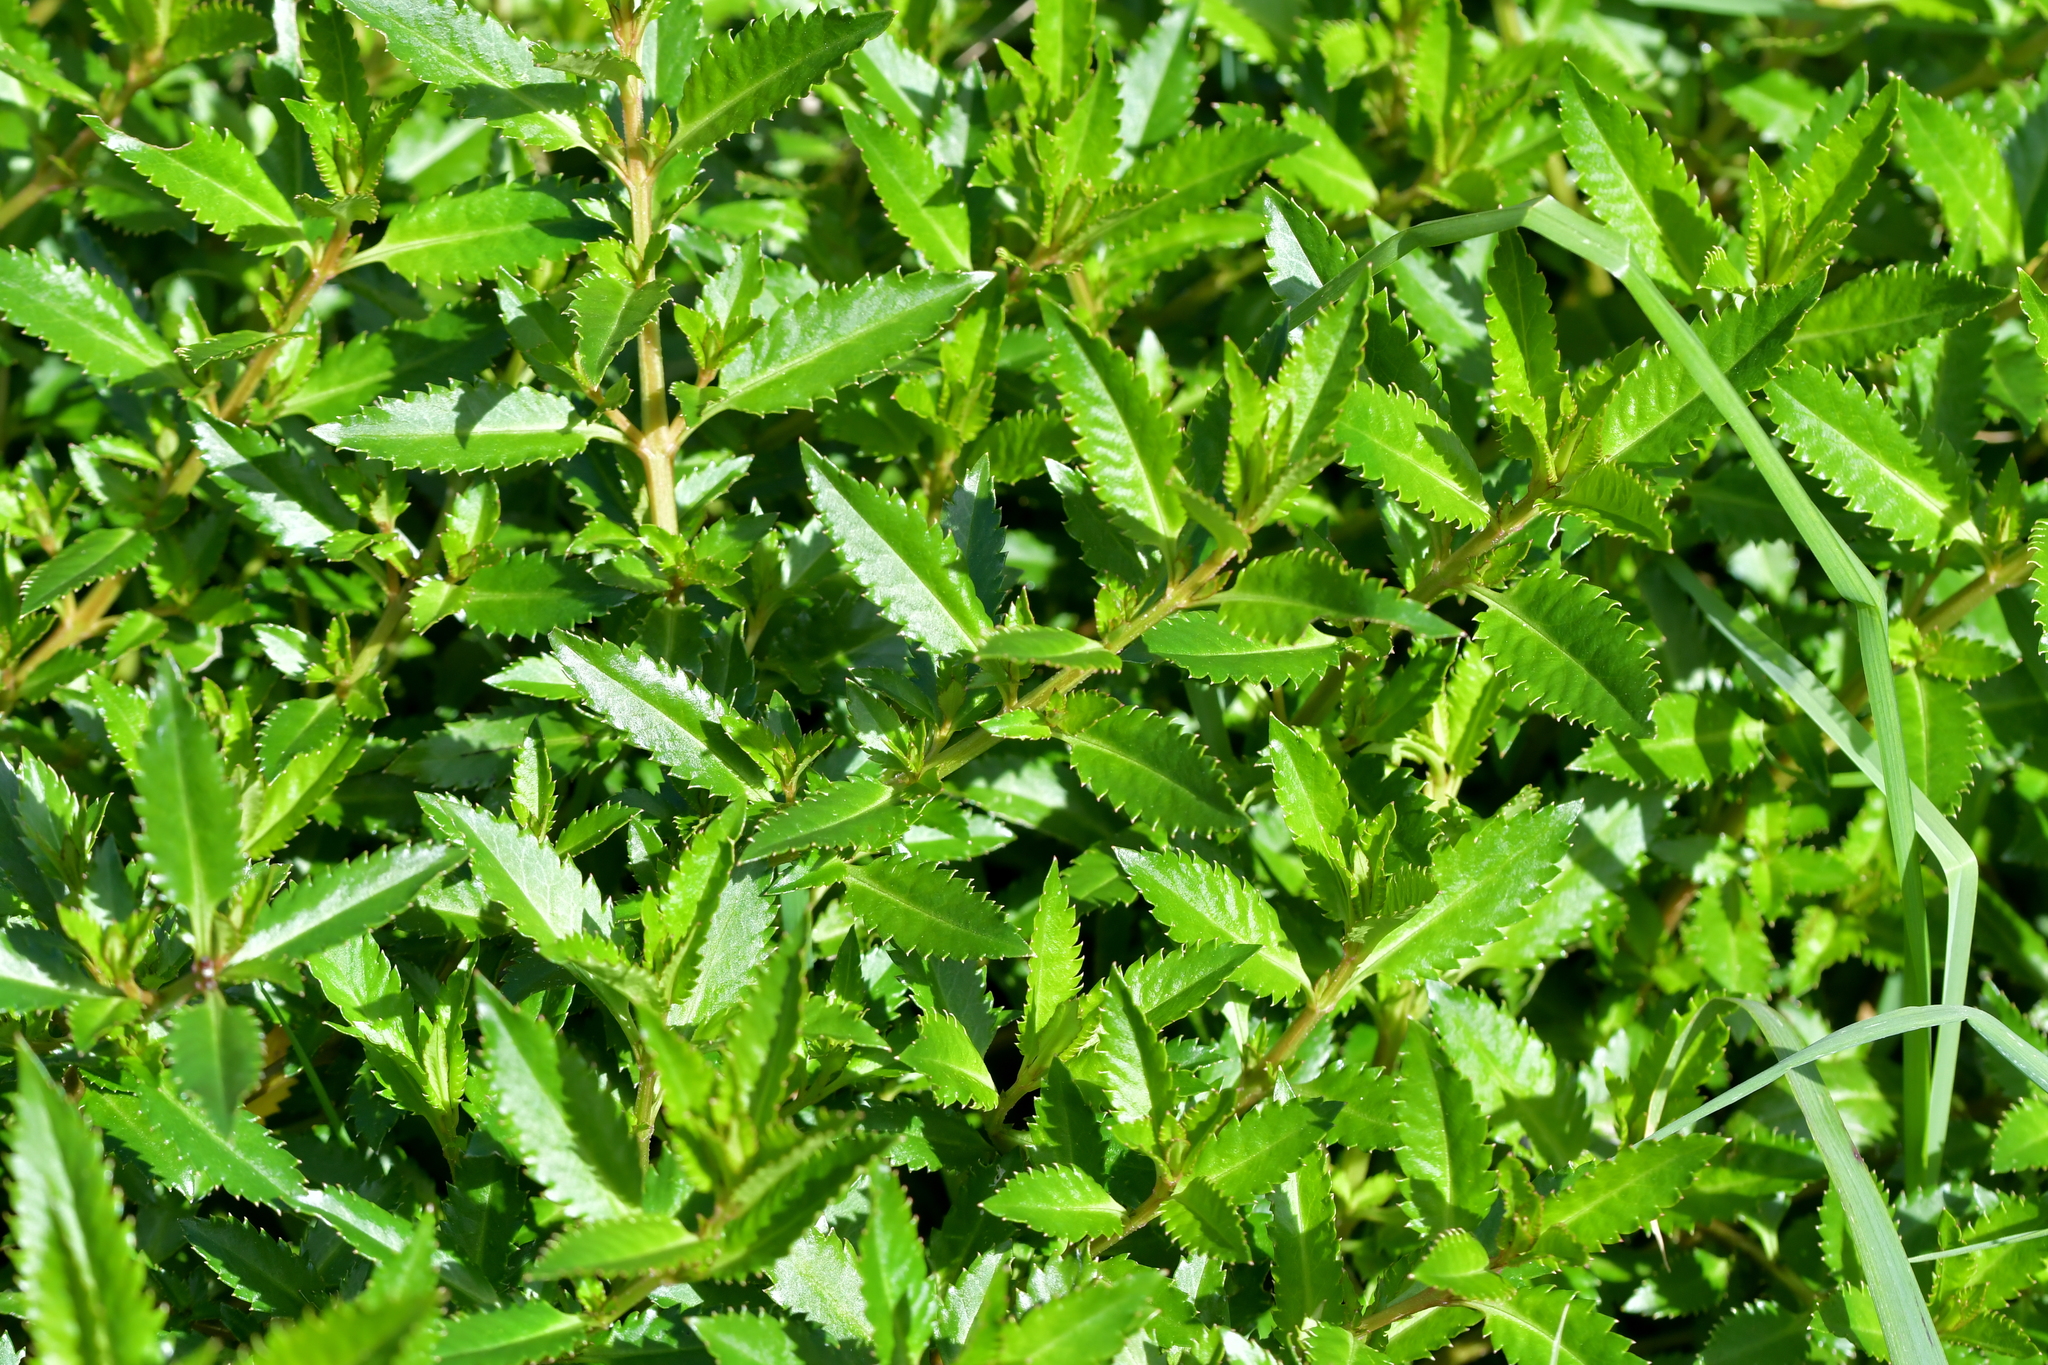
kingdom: Plantae
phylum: Tracheophyta
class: Magnoliopsida
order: Saxifragales
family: Haloragaceae
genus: Haloragis
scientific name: Haloragis erecta
